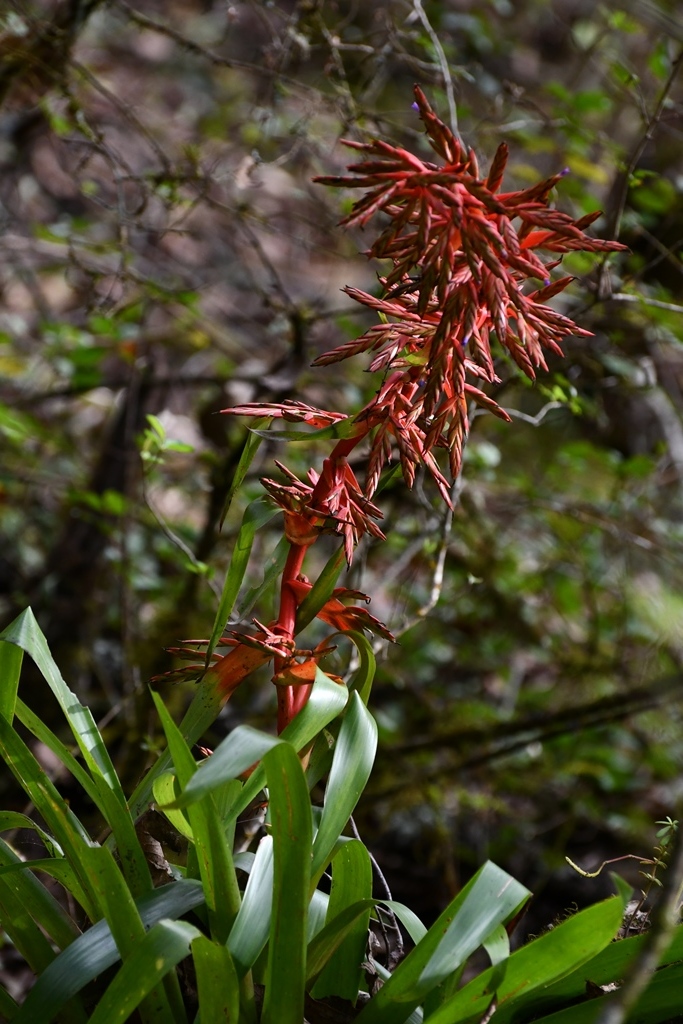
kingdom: Plantae
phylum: Tracheophyta
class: Liliopsida
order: Poales
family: Bromeliaceae
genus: Tillandsia
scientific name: Tillandsia guatemalensis
